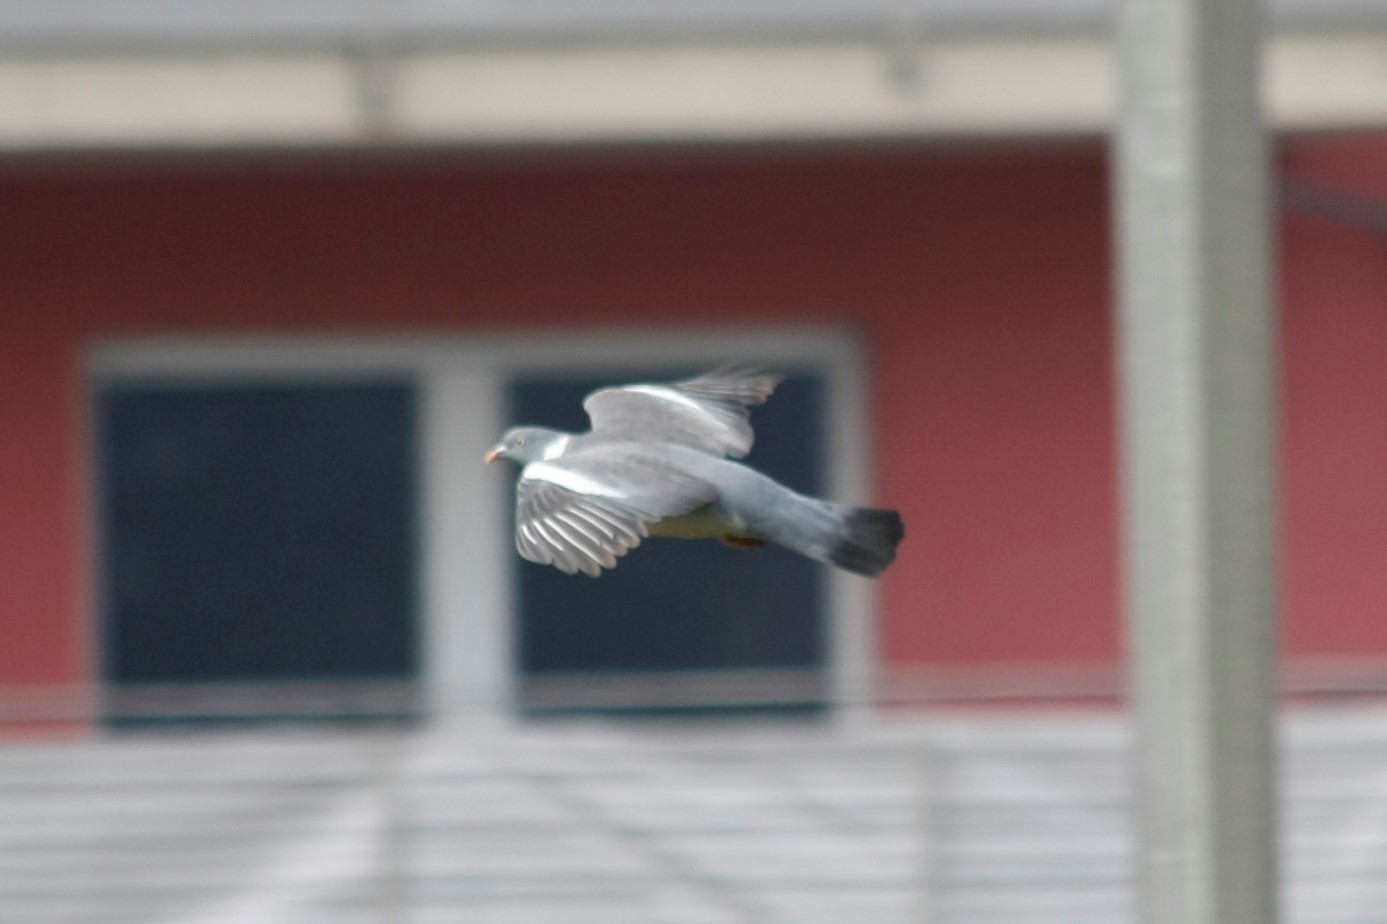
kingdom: Animalia
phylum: Chordata
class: Aves
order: Columbiformes
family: Columbidae
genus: Columba
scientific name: Columba palumbus
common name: Common wood pigeon
